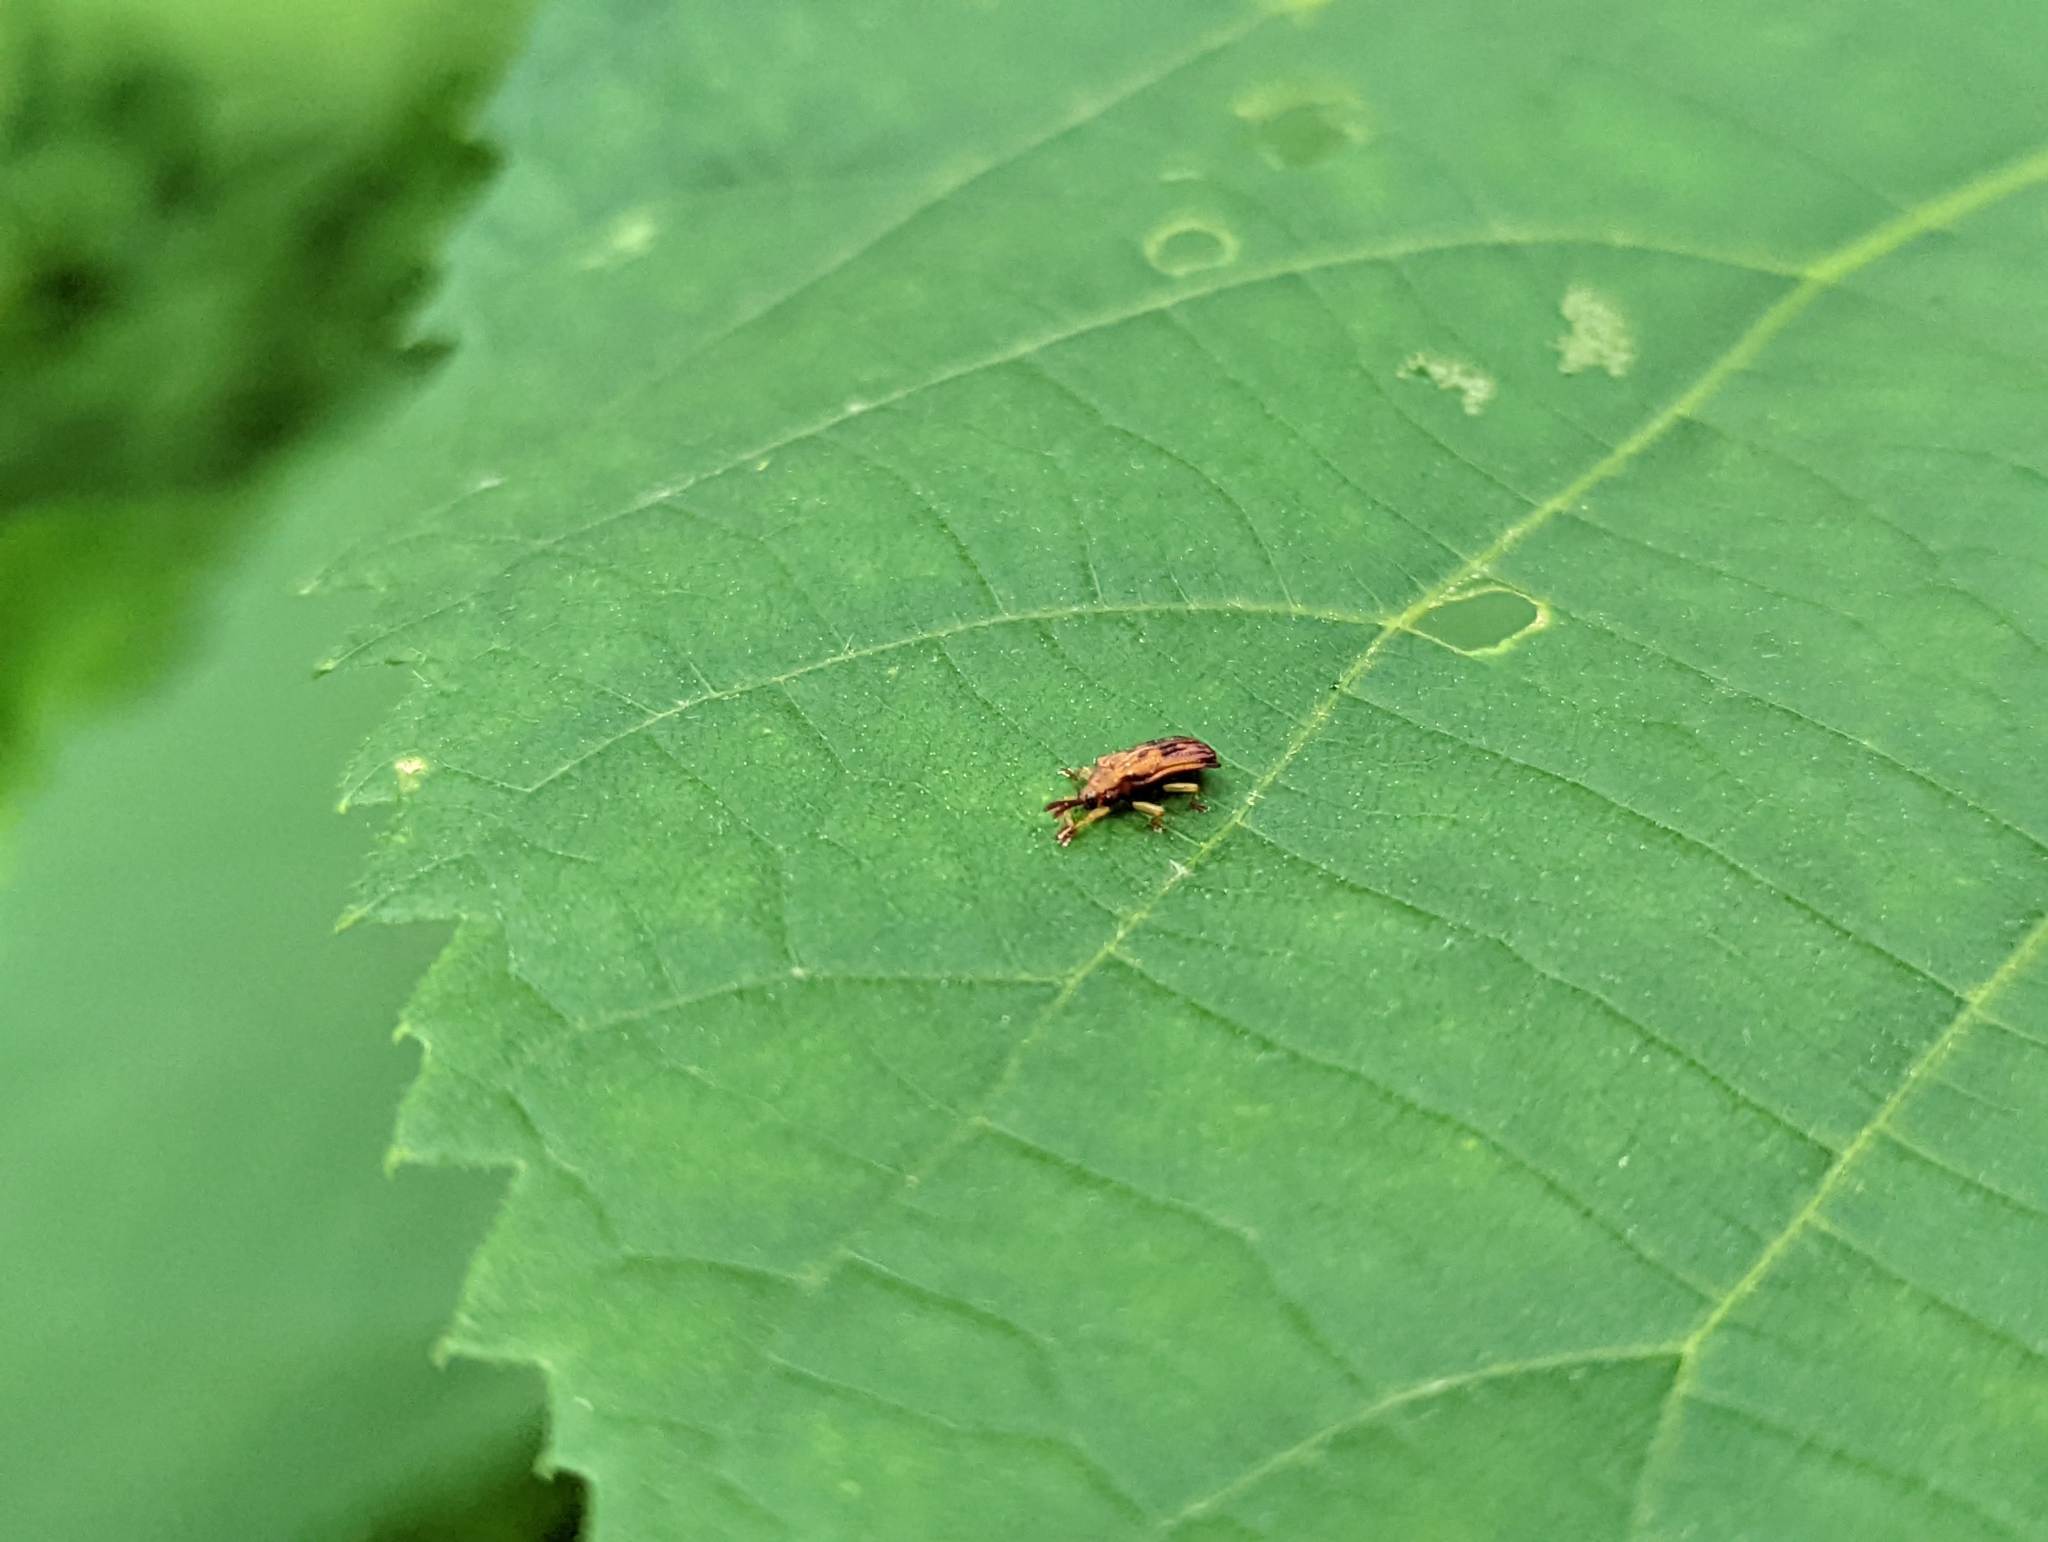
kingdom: Animalia
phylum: Arthropoda
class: Insecta
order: Coleoptera
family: Chrysomelidae
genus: Baliosus
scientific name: Baliosus nervosus
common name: Basswood leaf miner
